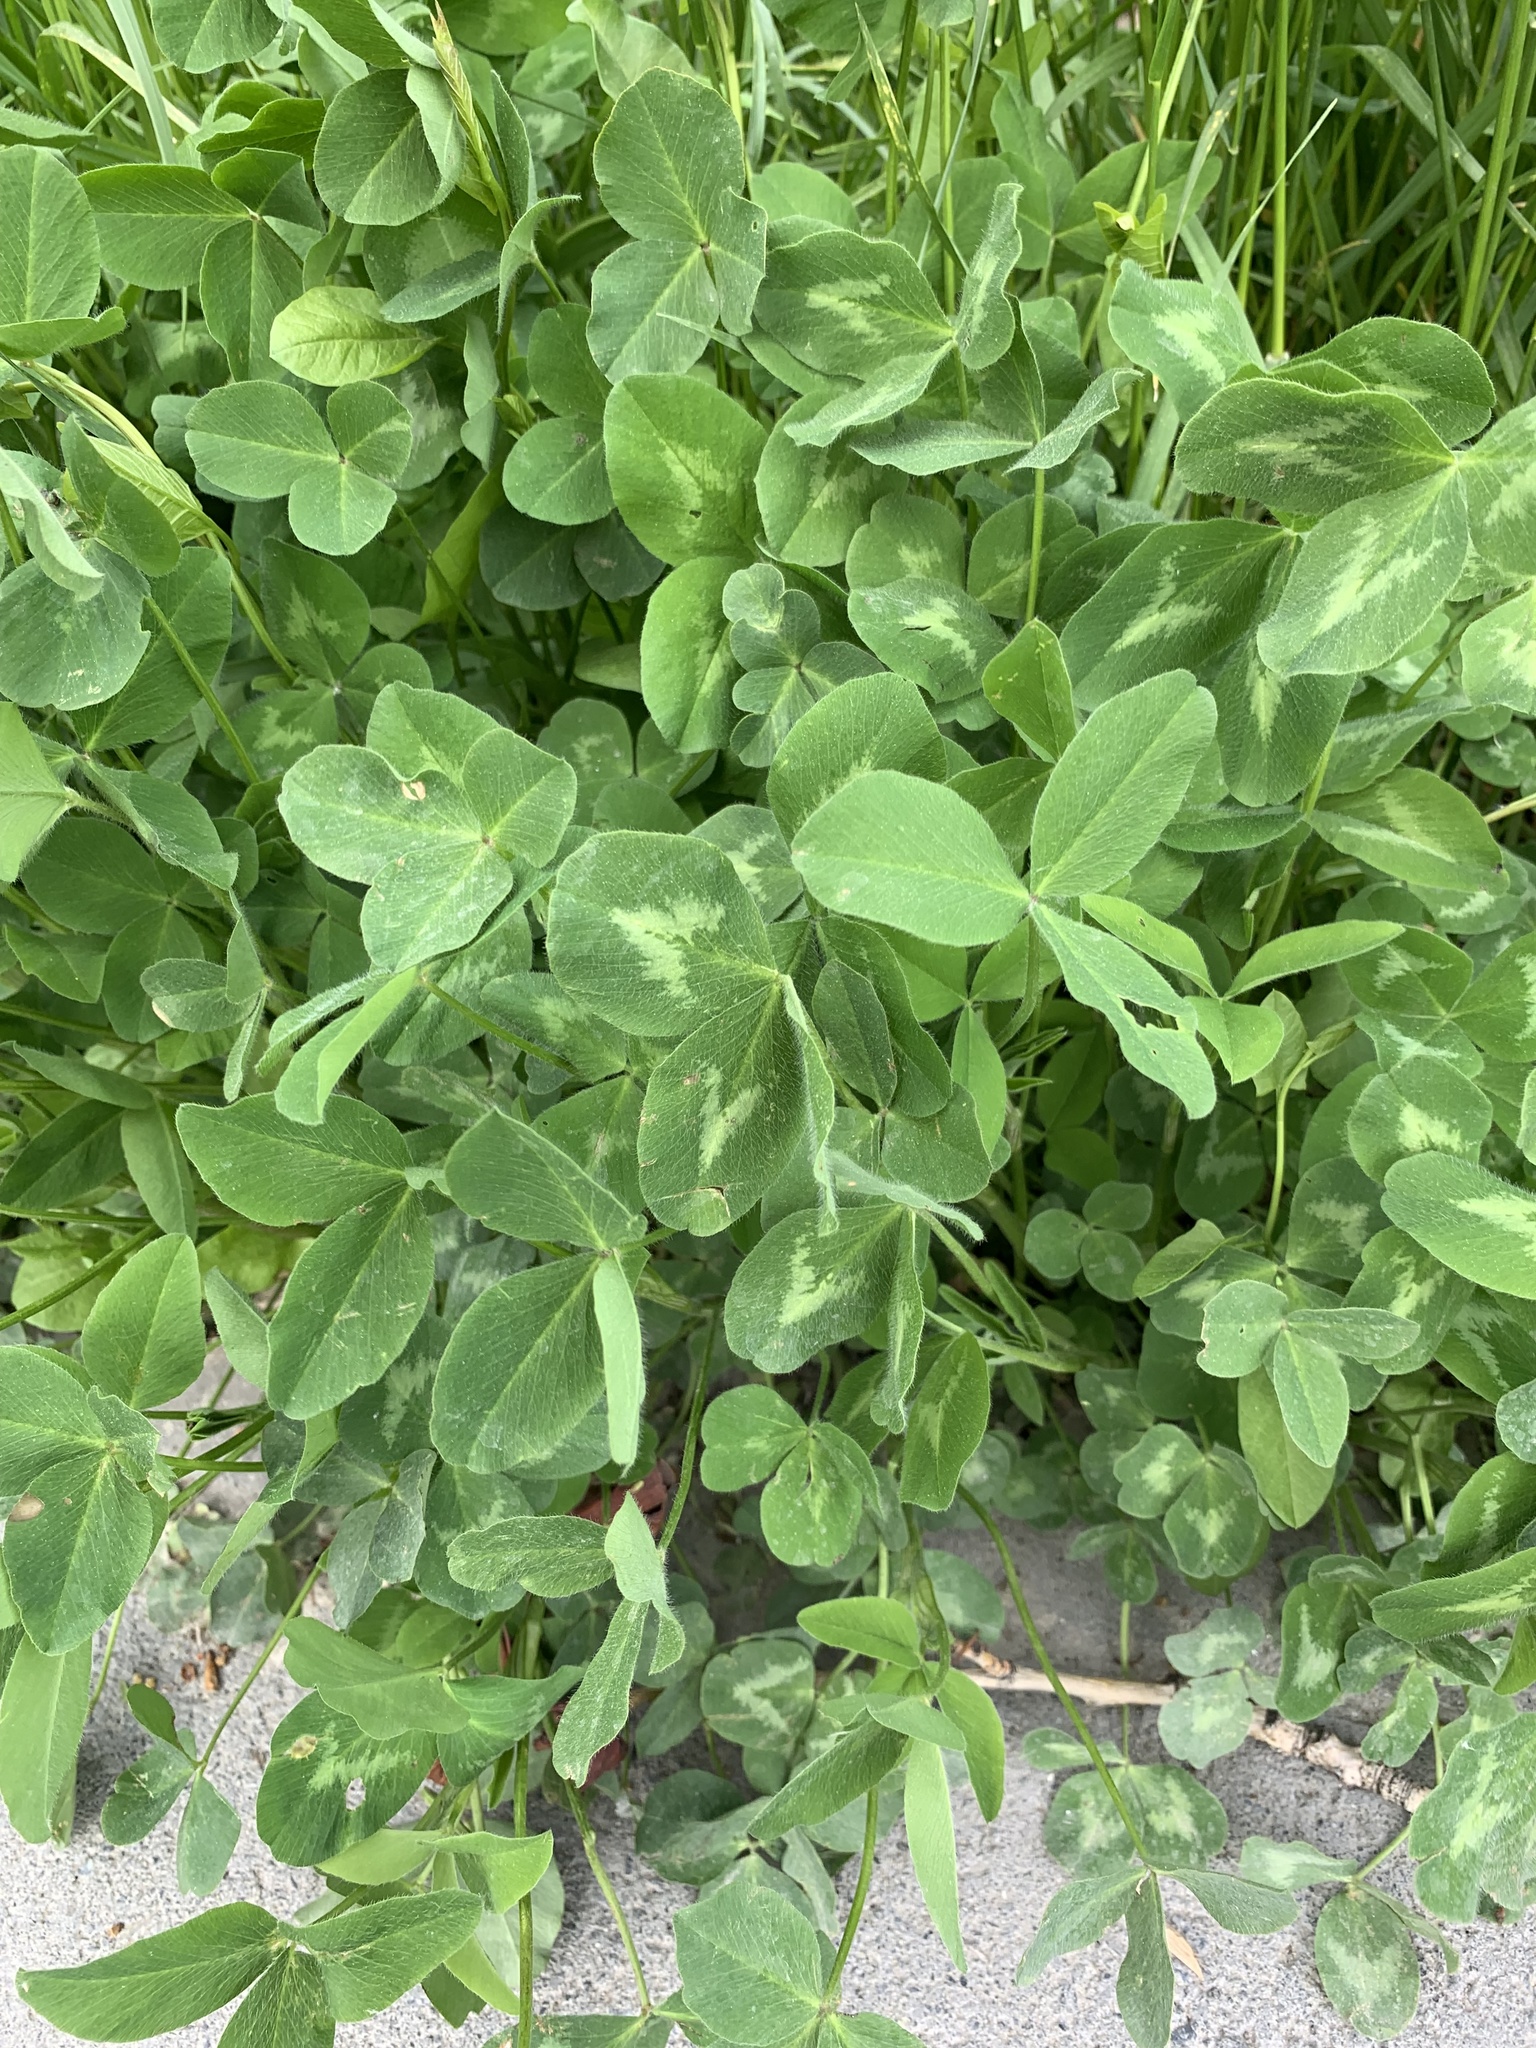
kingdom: Plantae
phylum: Tracheophyta
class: Magnoliopsida
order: Fabales
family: Fabaceae
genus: Trifolium
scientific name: Trifolium pratense
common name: Red clover
